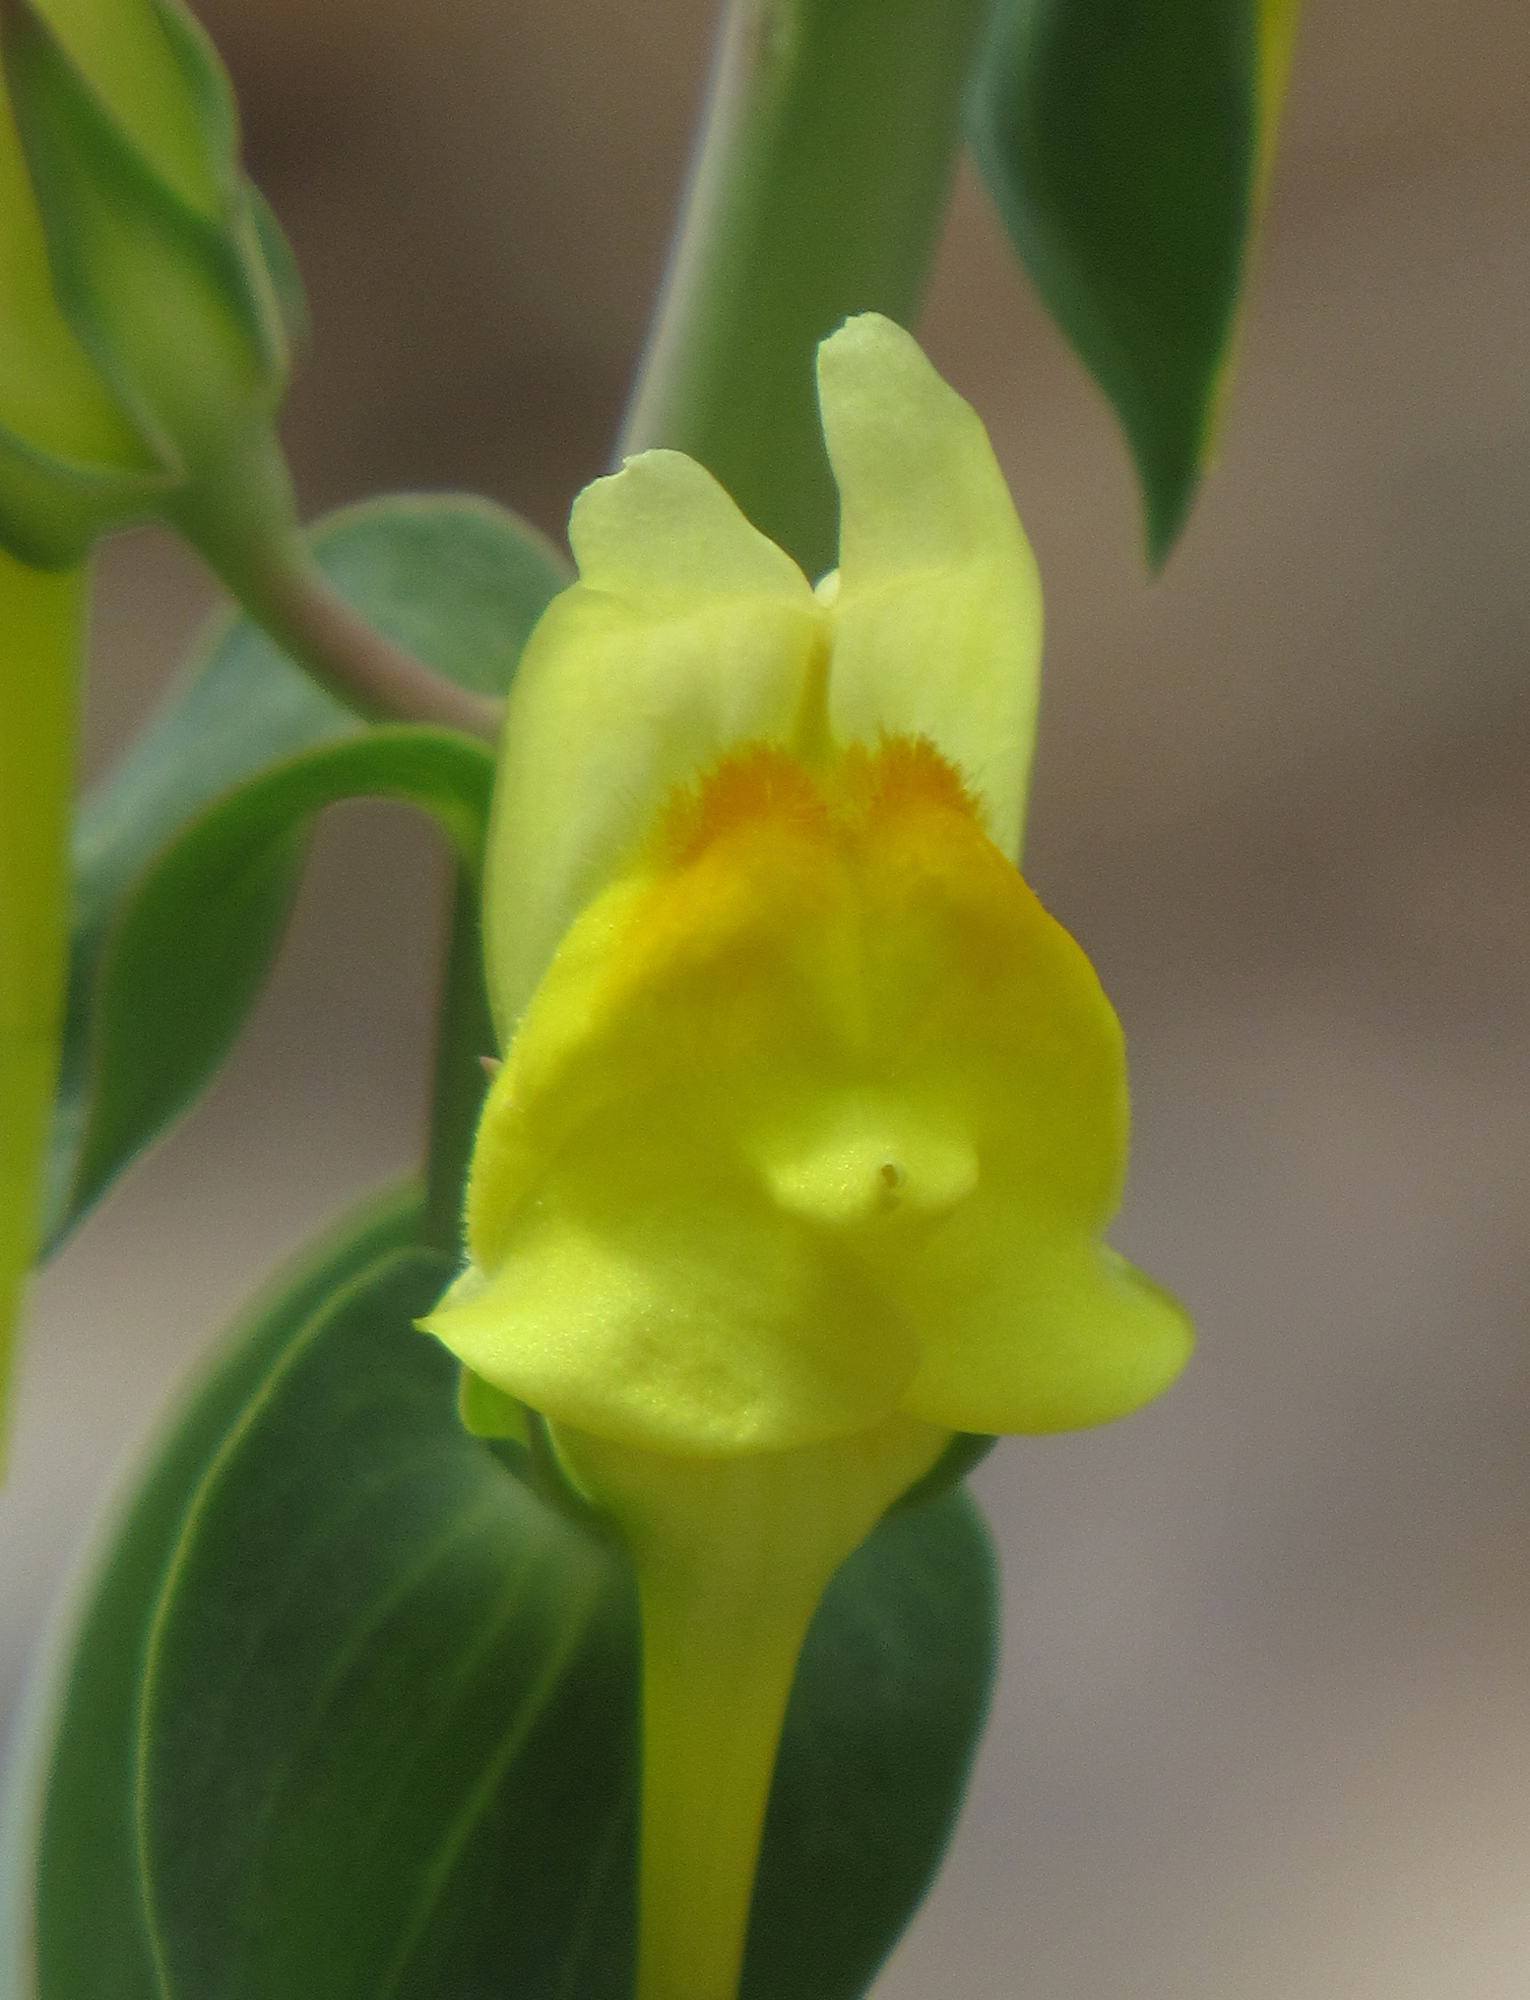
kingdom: Plantae
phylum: Tracheophyta
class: Magnoliopsida
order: Lamiales
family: Plantaginaceae
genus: Linaria
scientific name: Linaria dalmatica
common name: Dalmatian toadflax
